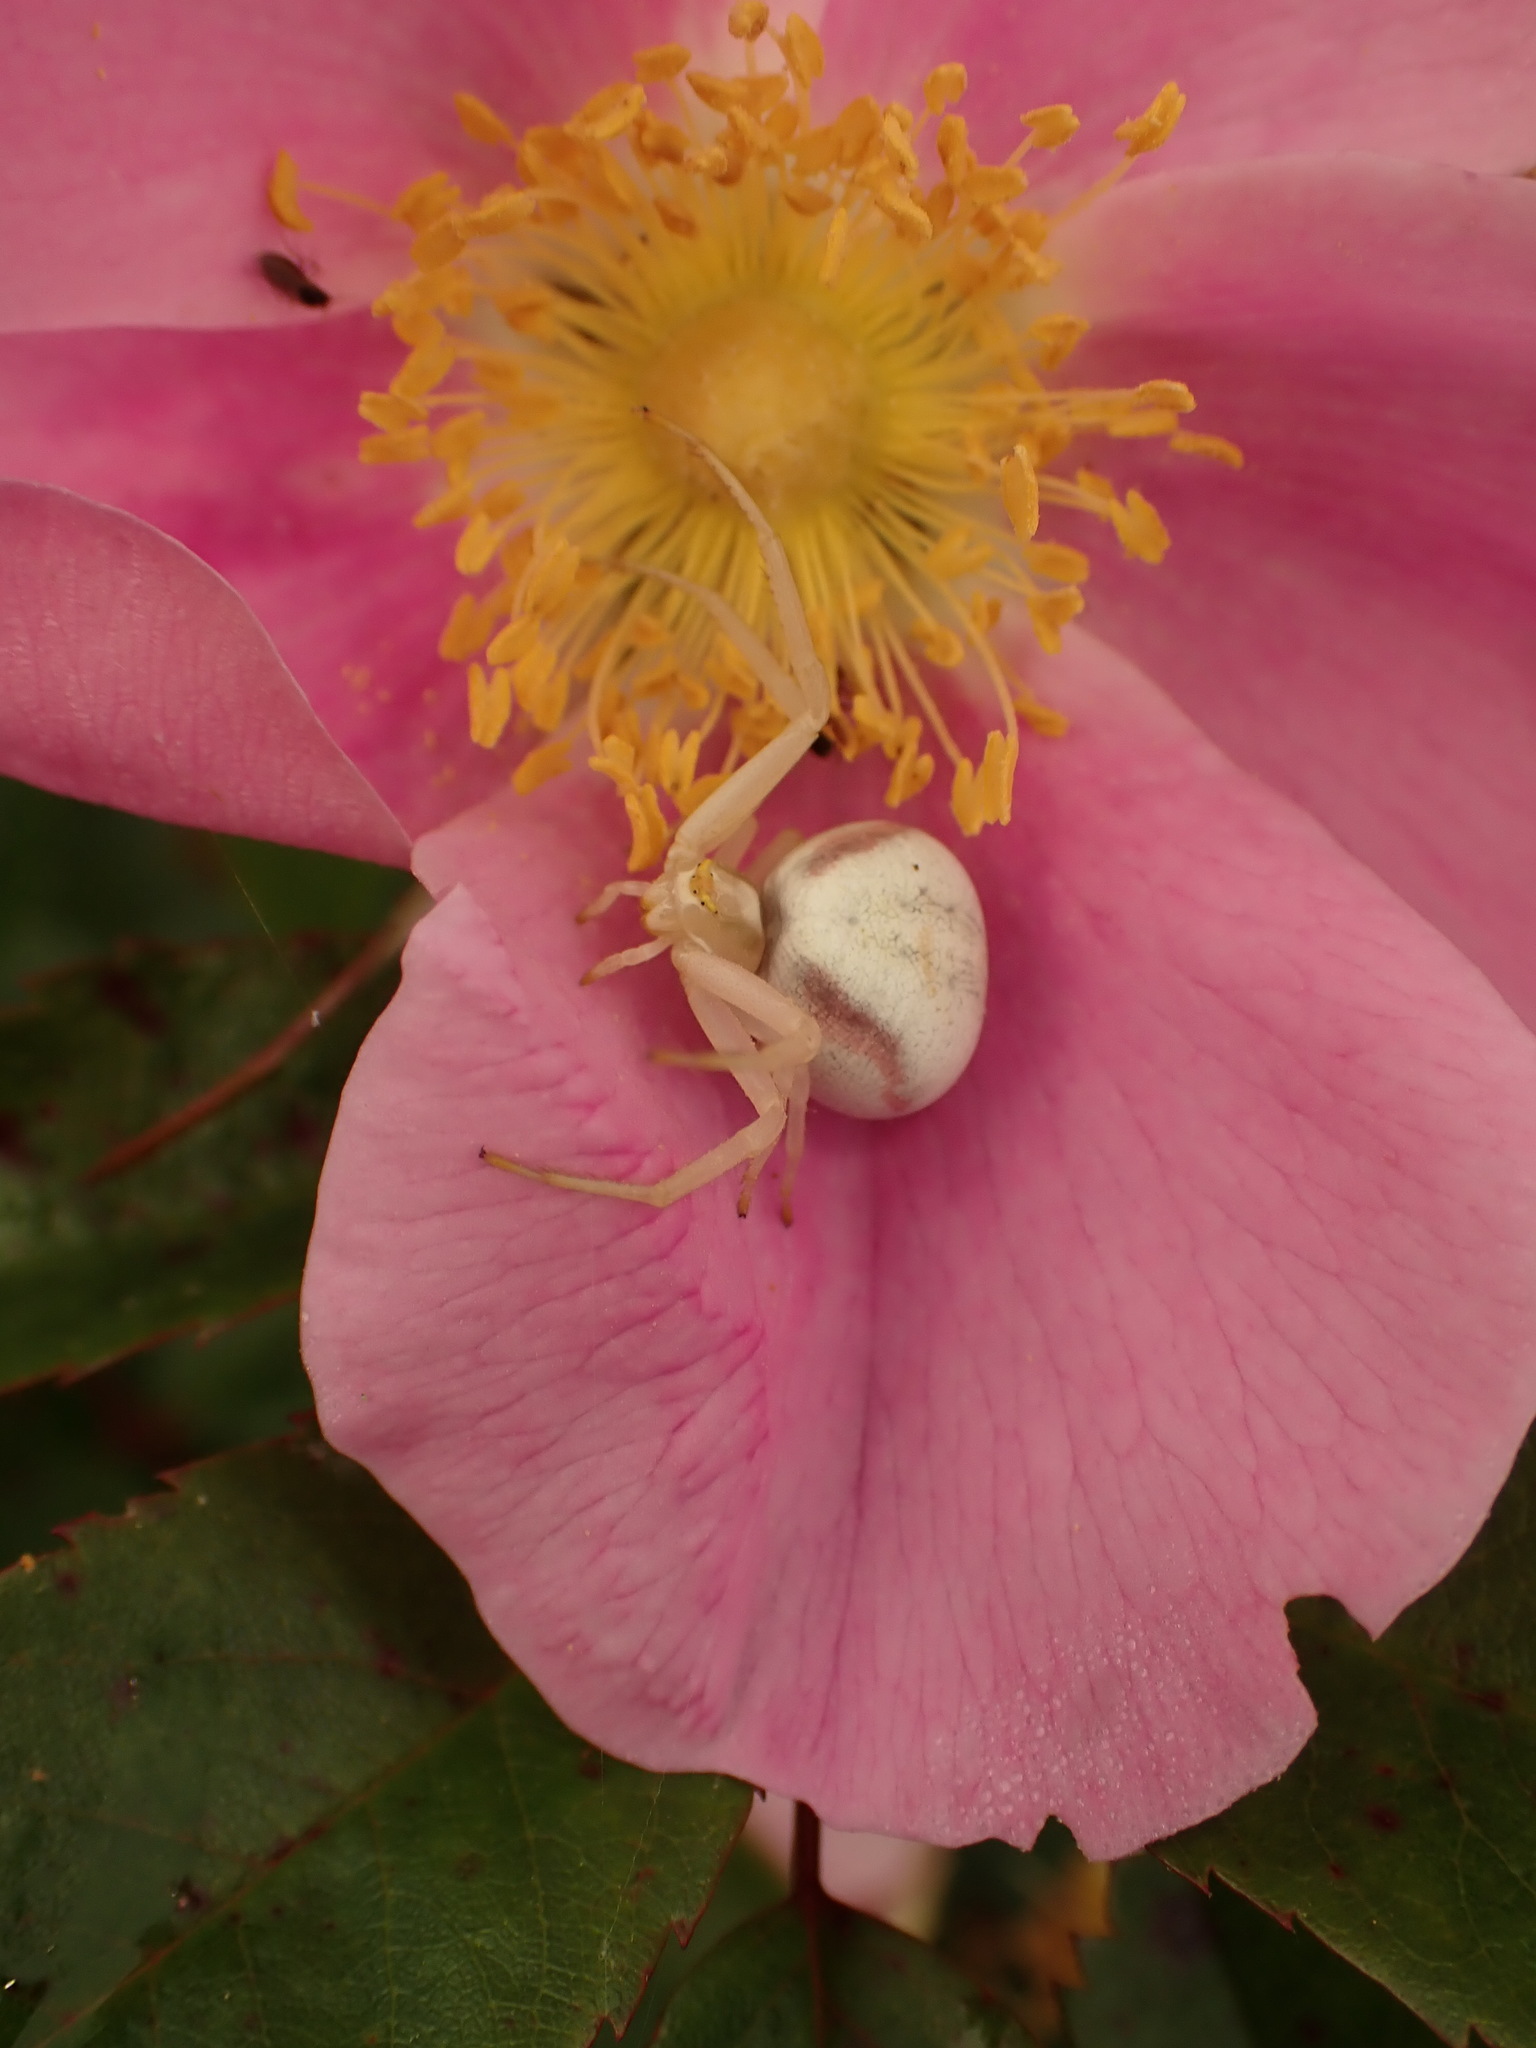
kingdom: Animalia
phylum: Arthropoda
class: Arachnida
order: Araneae
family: Thomisidae
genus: Misumena
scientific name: Misumena vatia
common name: Goldenrod crab spider
